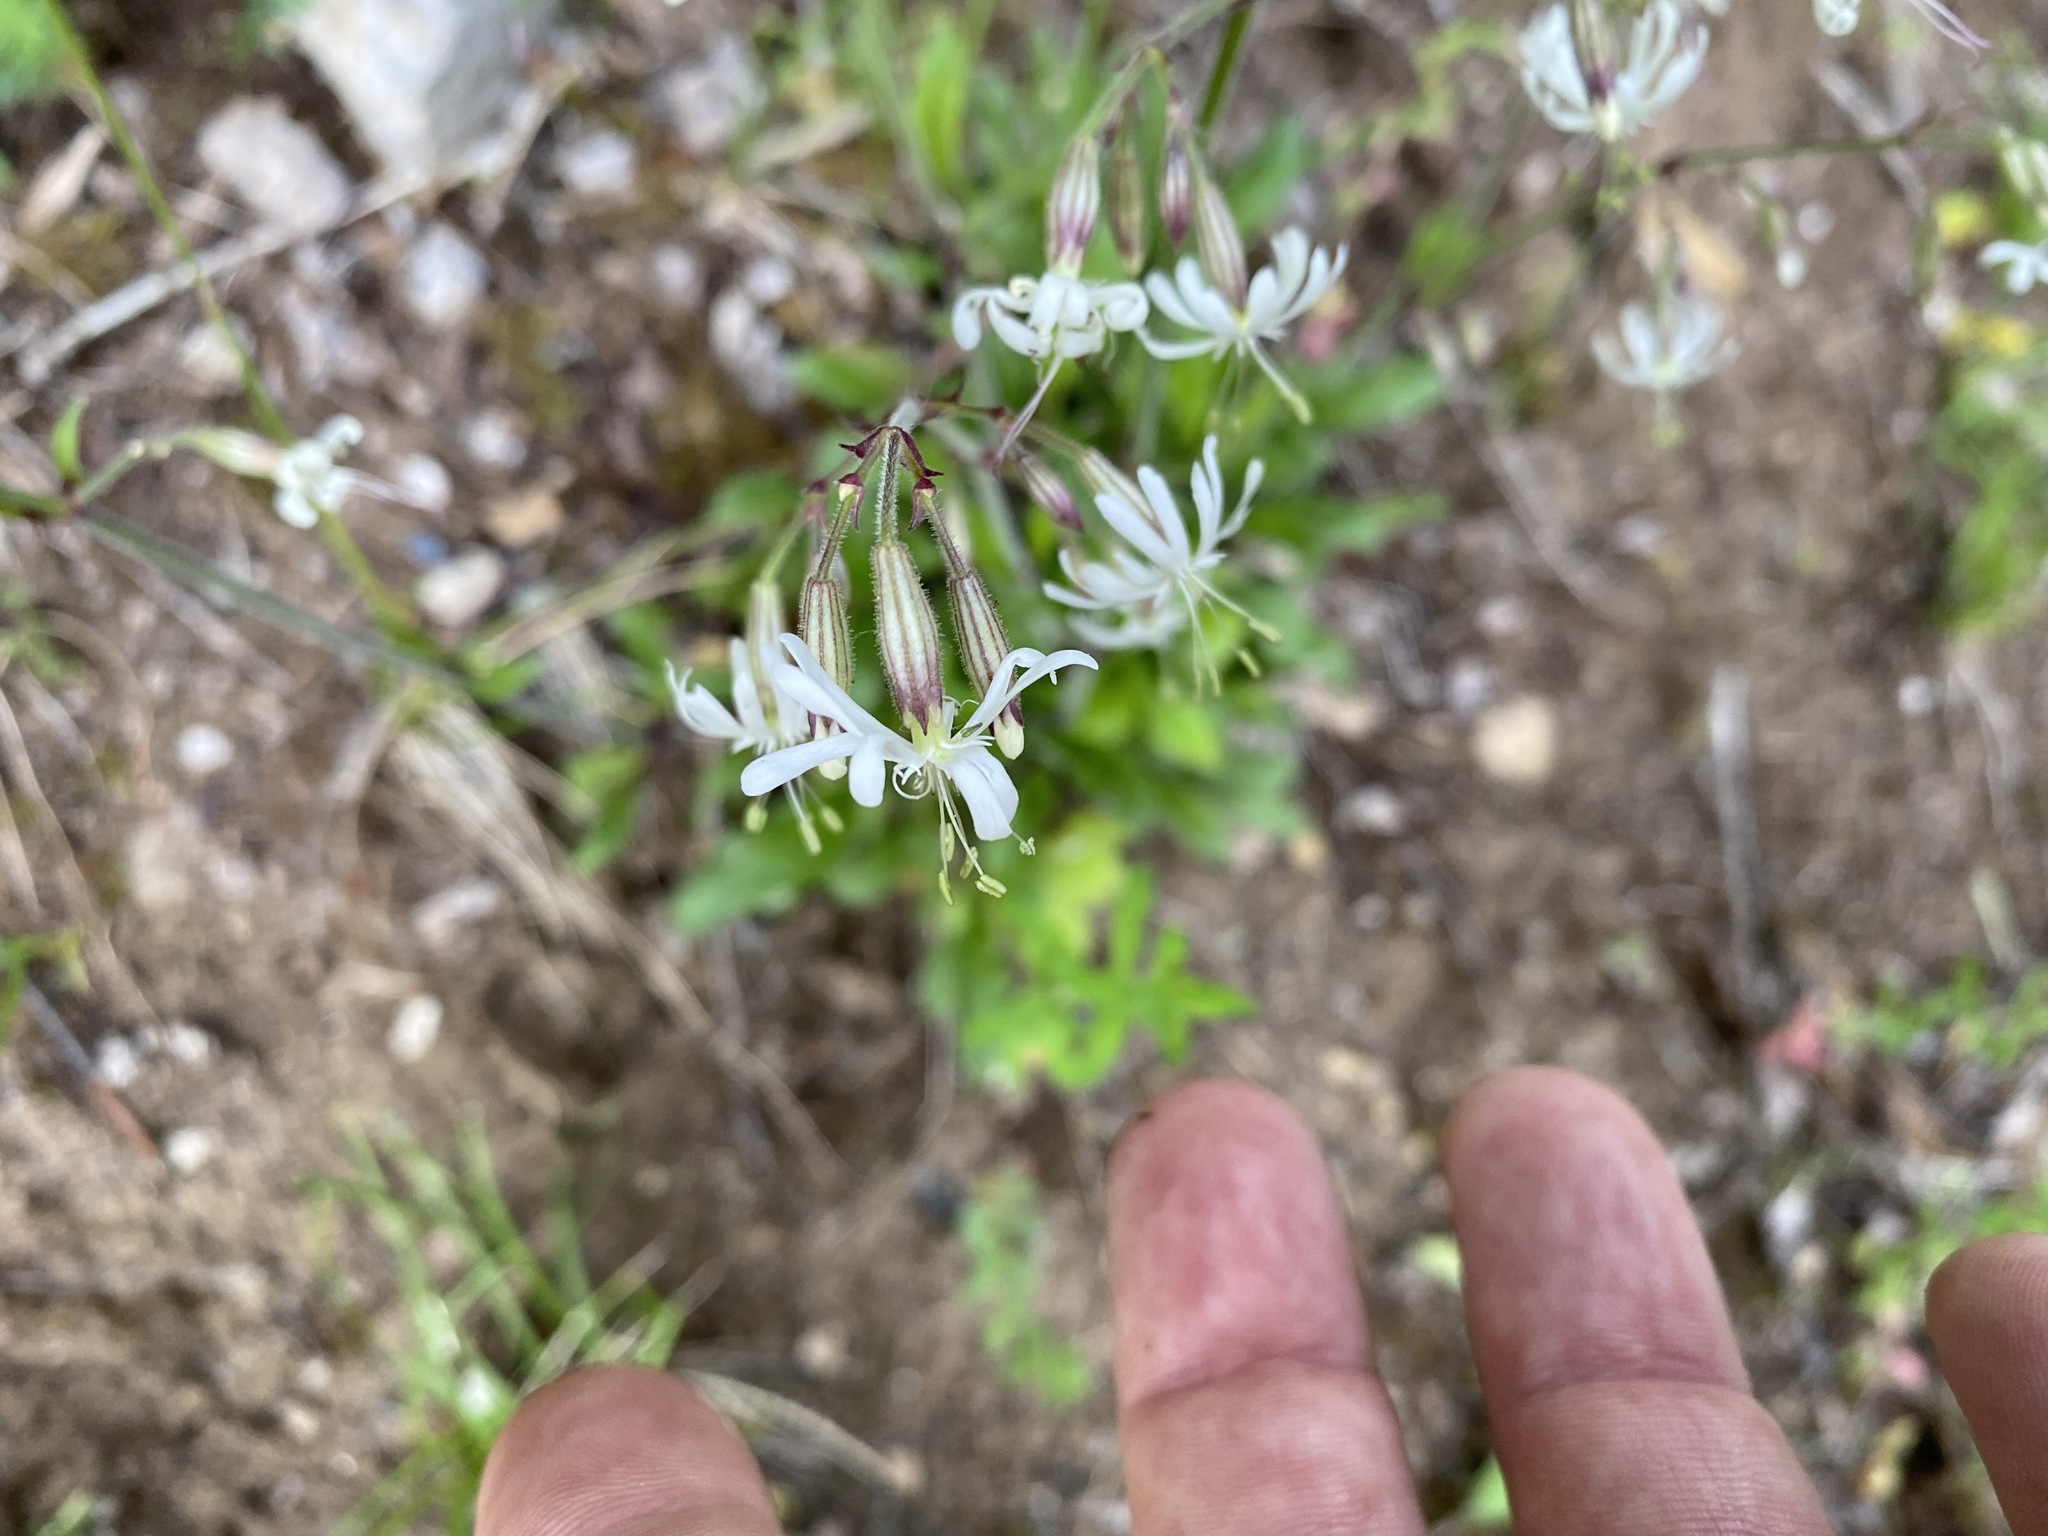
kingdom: Plantae
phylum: Tracheophyta
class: Magnoliopsida
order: Caryophyllales
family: Caryophyllaceae
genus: Silene
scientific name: Silene nutans
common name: Nottingham catchfly
